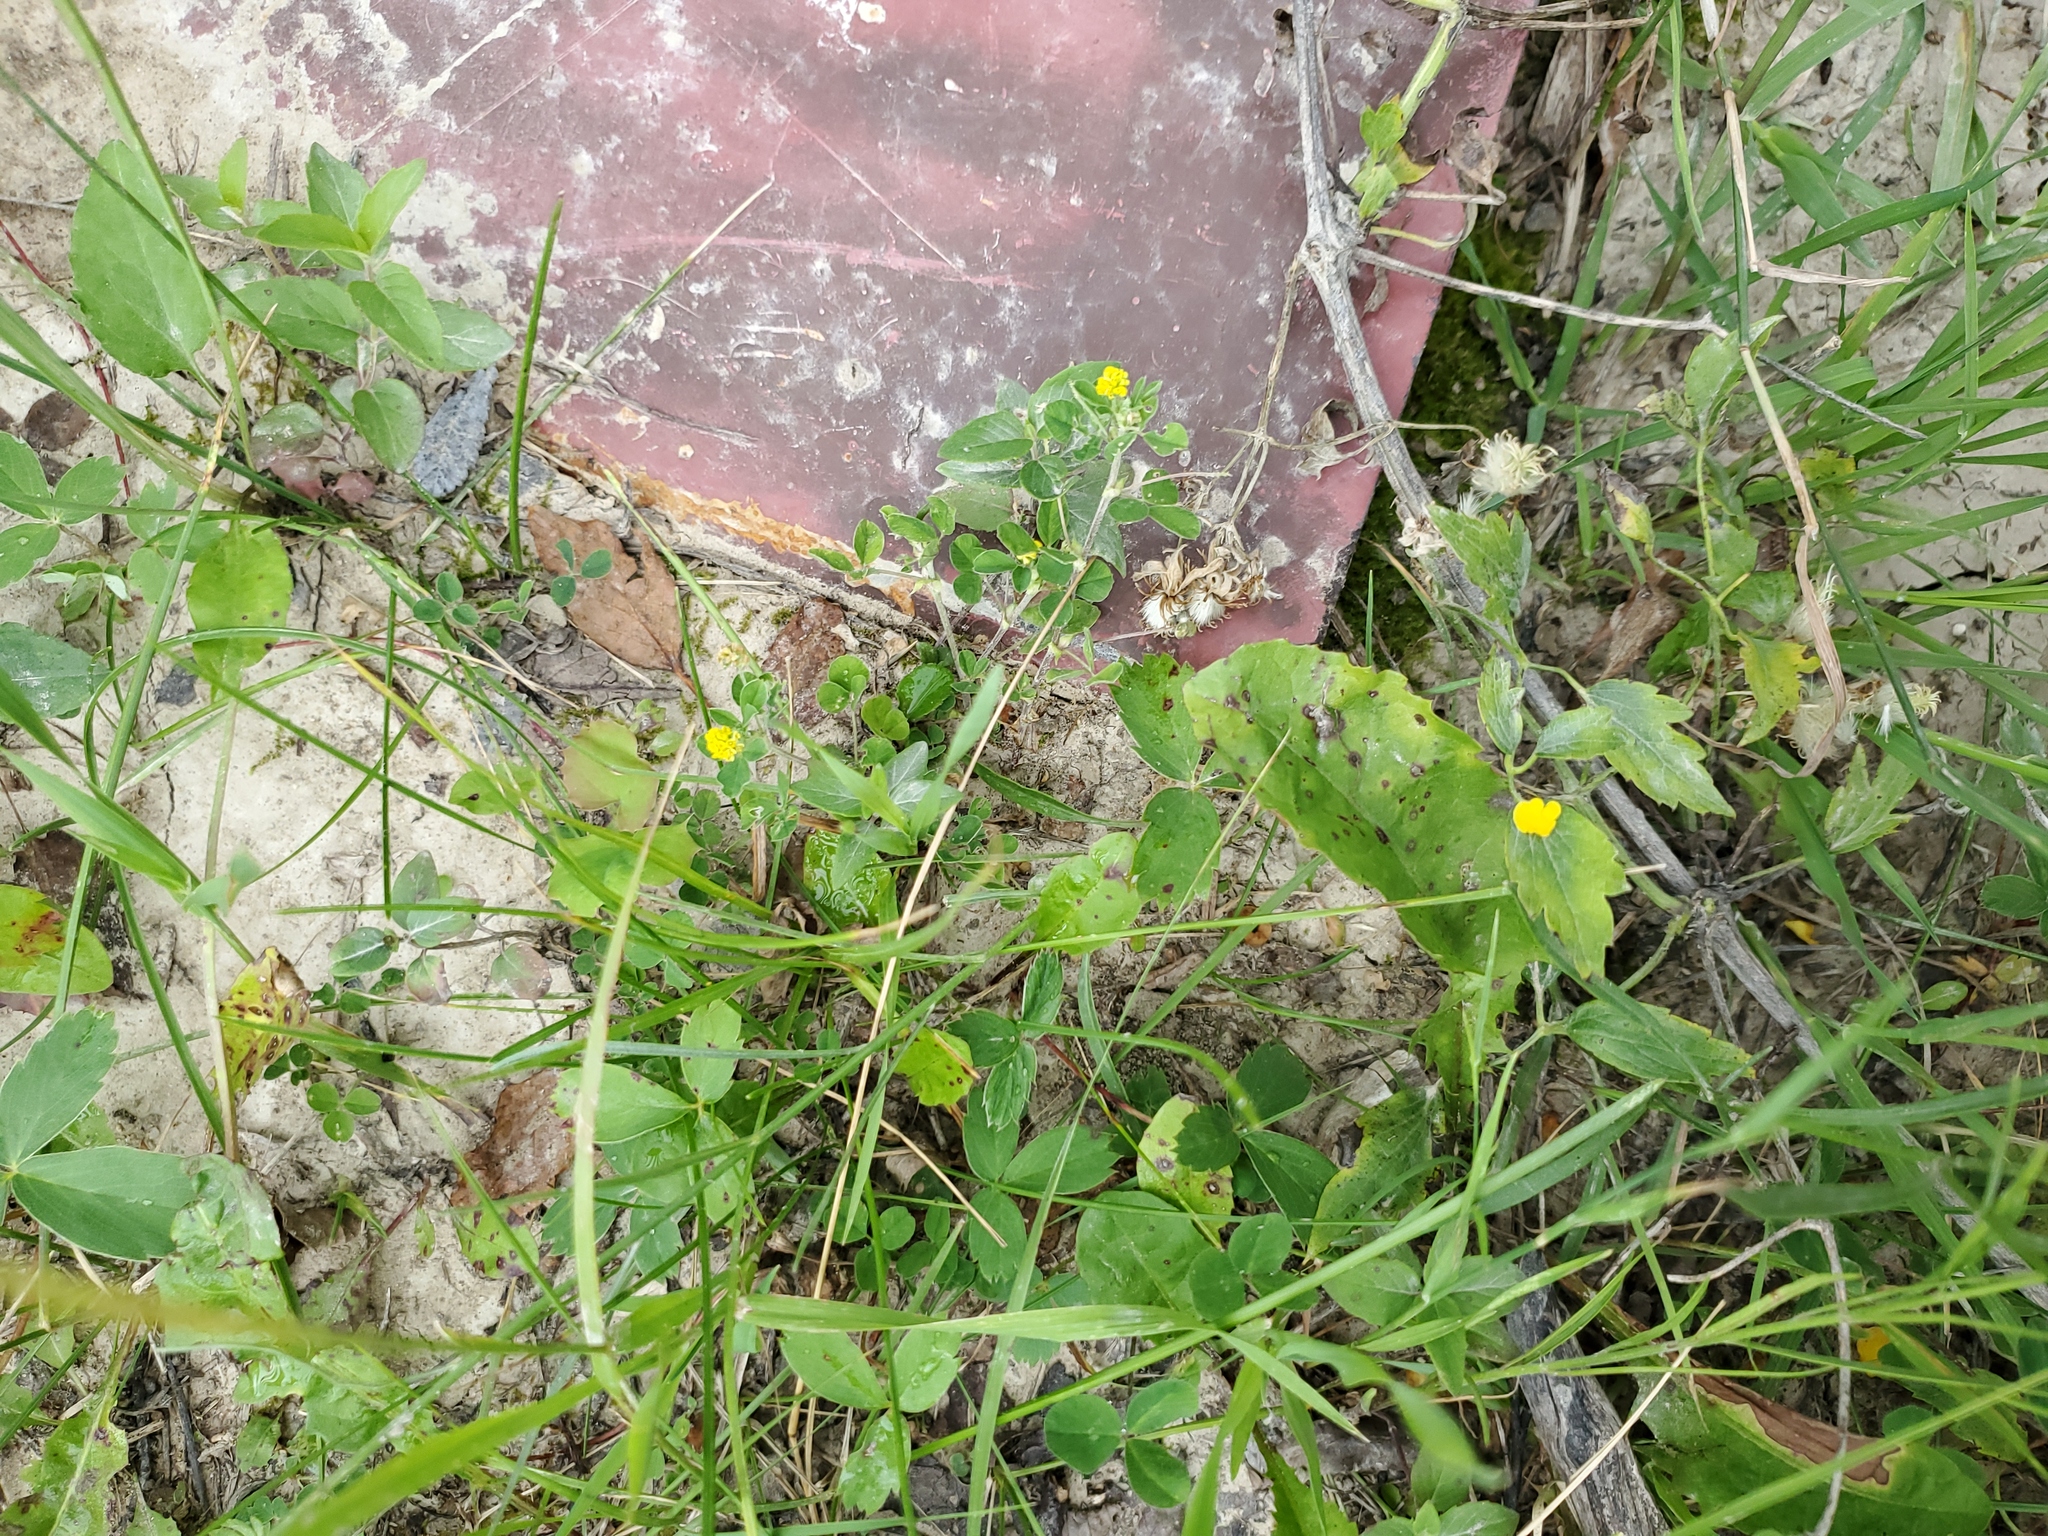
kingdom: Plantae
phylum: Tracheophyta
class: Magnoliopsida
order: Fabales
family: Fabaceae
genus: Medicago
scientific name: Medicago lupulina
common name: Black medick
